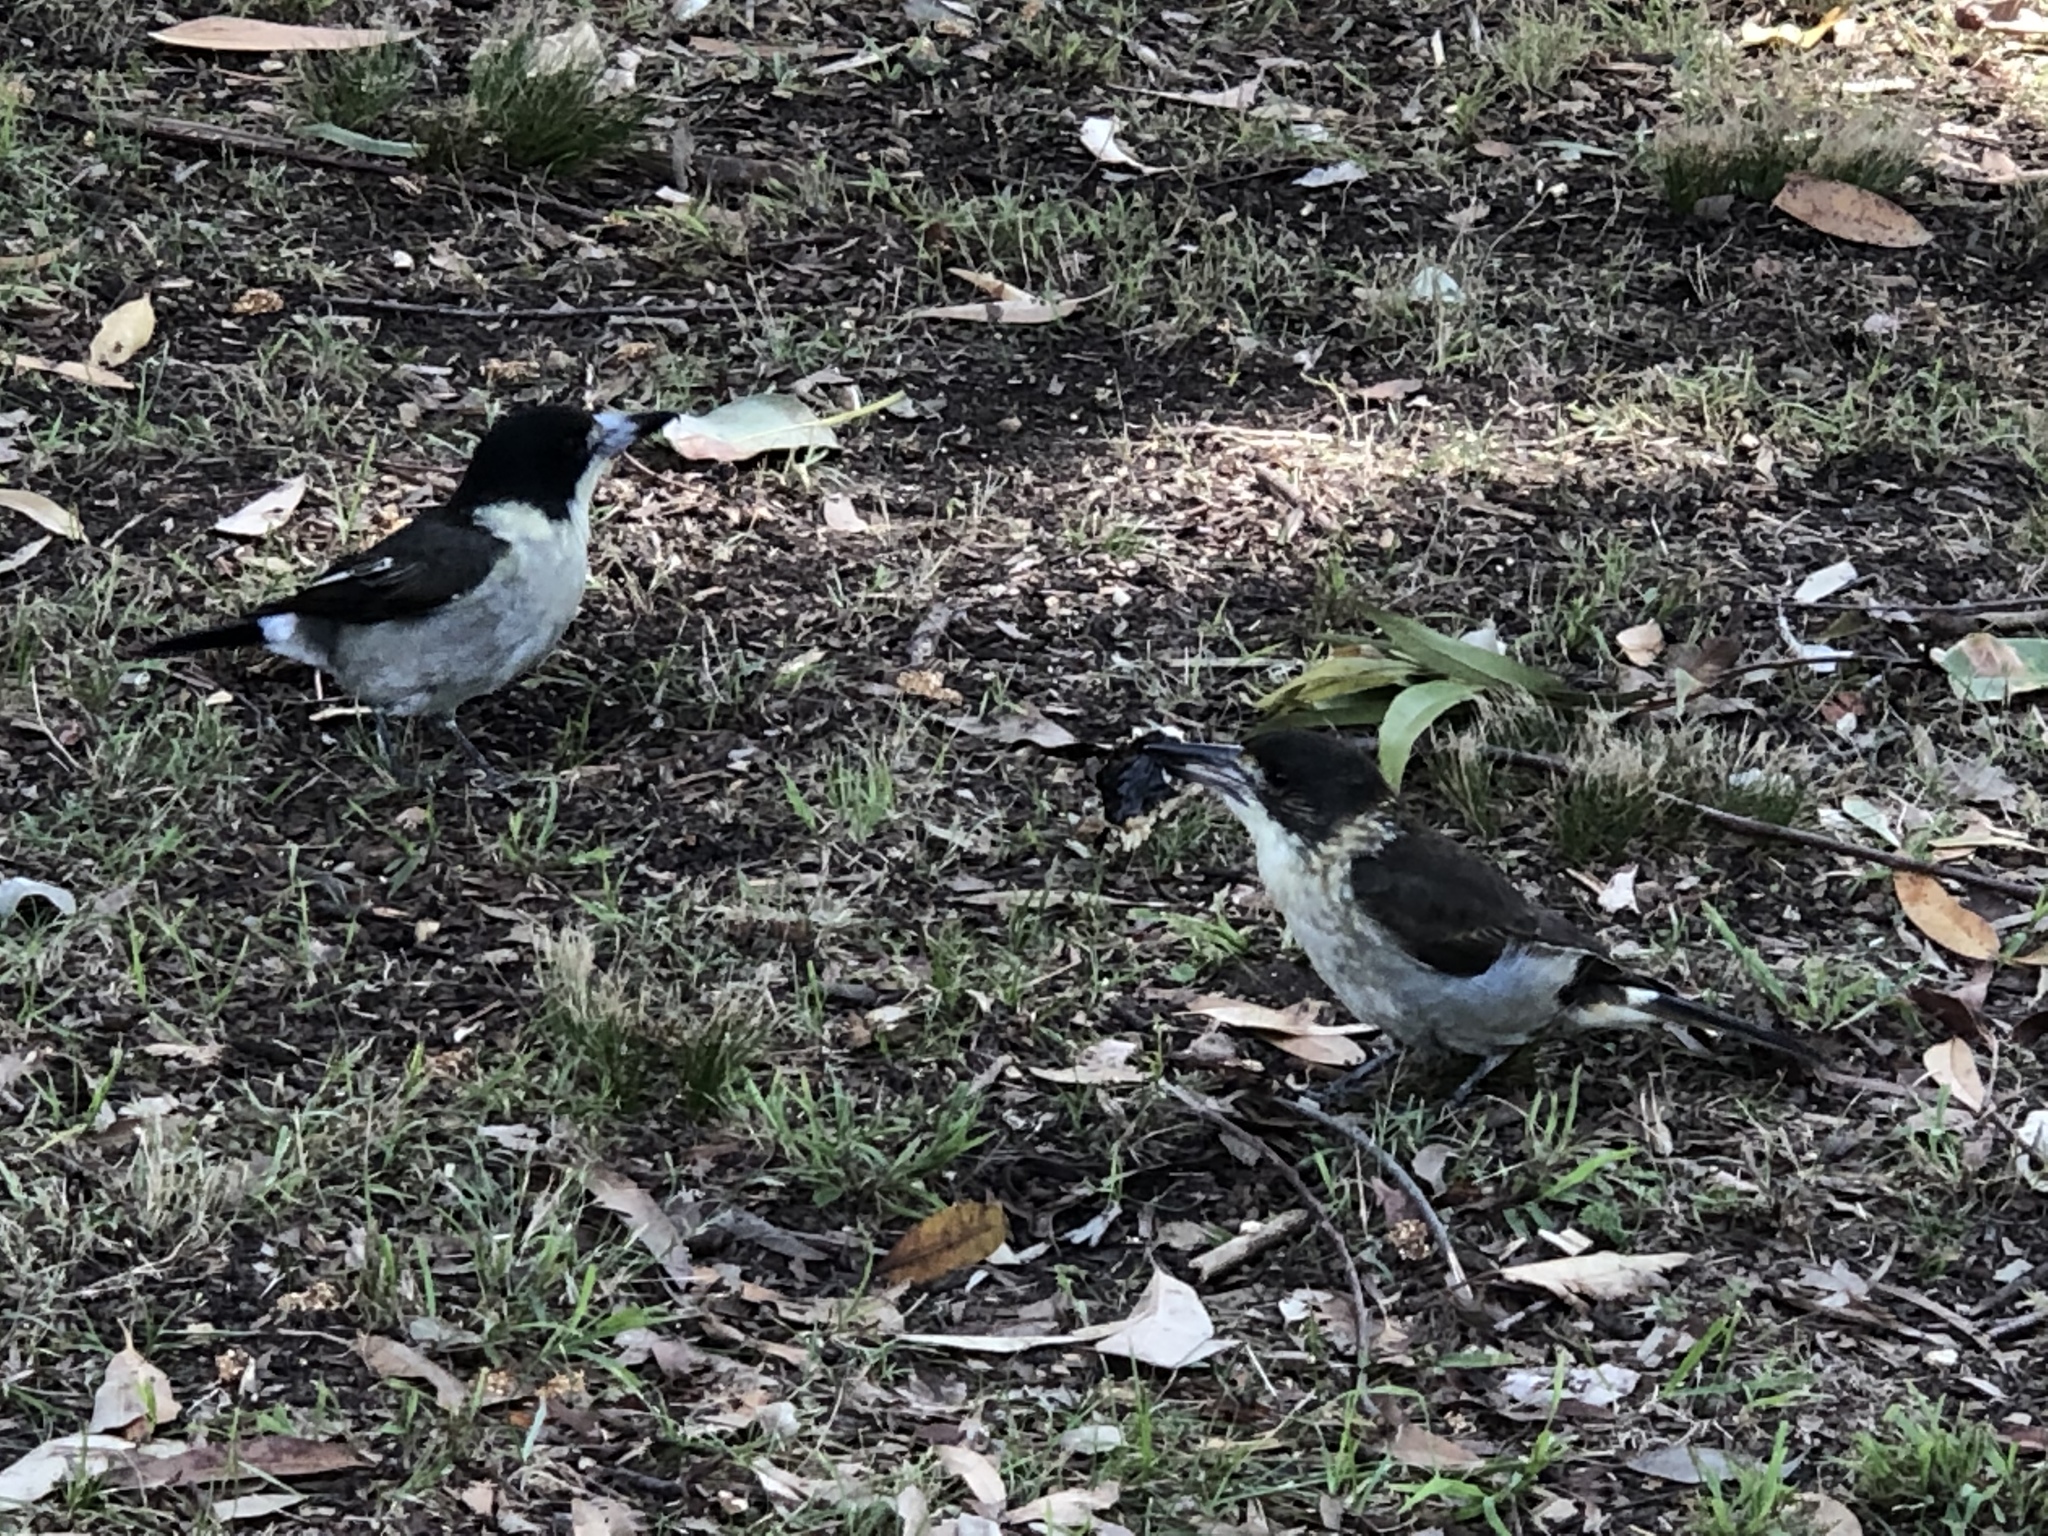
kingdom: Animalia
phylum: Chordata
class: Aves
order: Passeriformes
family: Cracticidae
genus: Cracticus
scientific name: Cracticus torquatus
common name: Grey butcherbird
